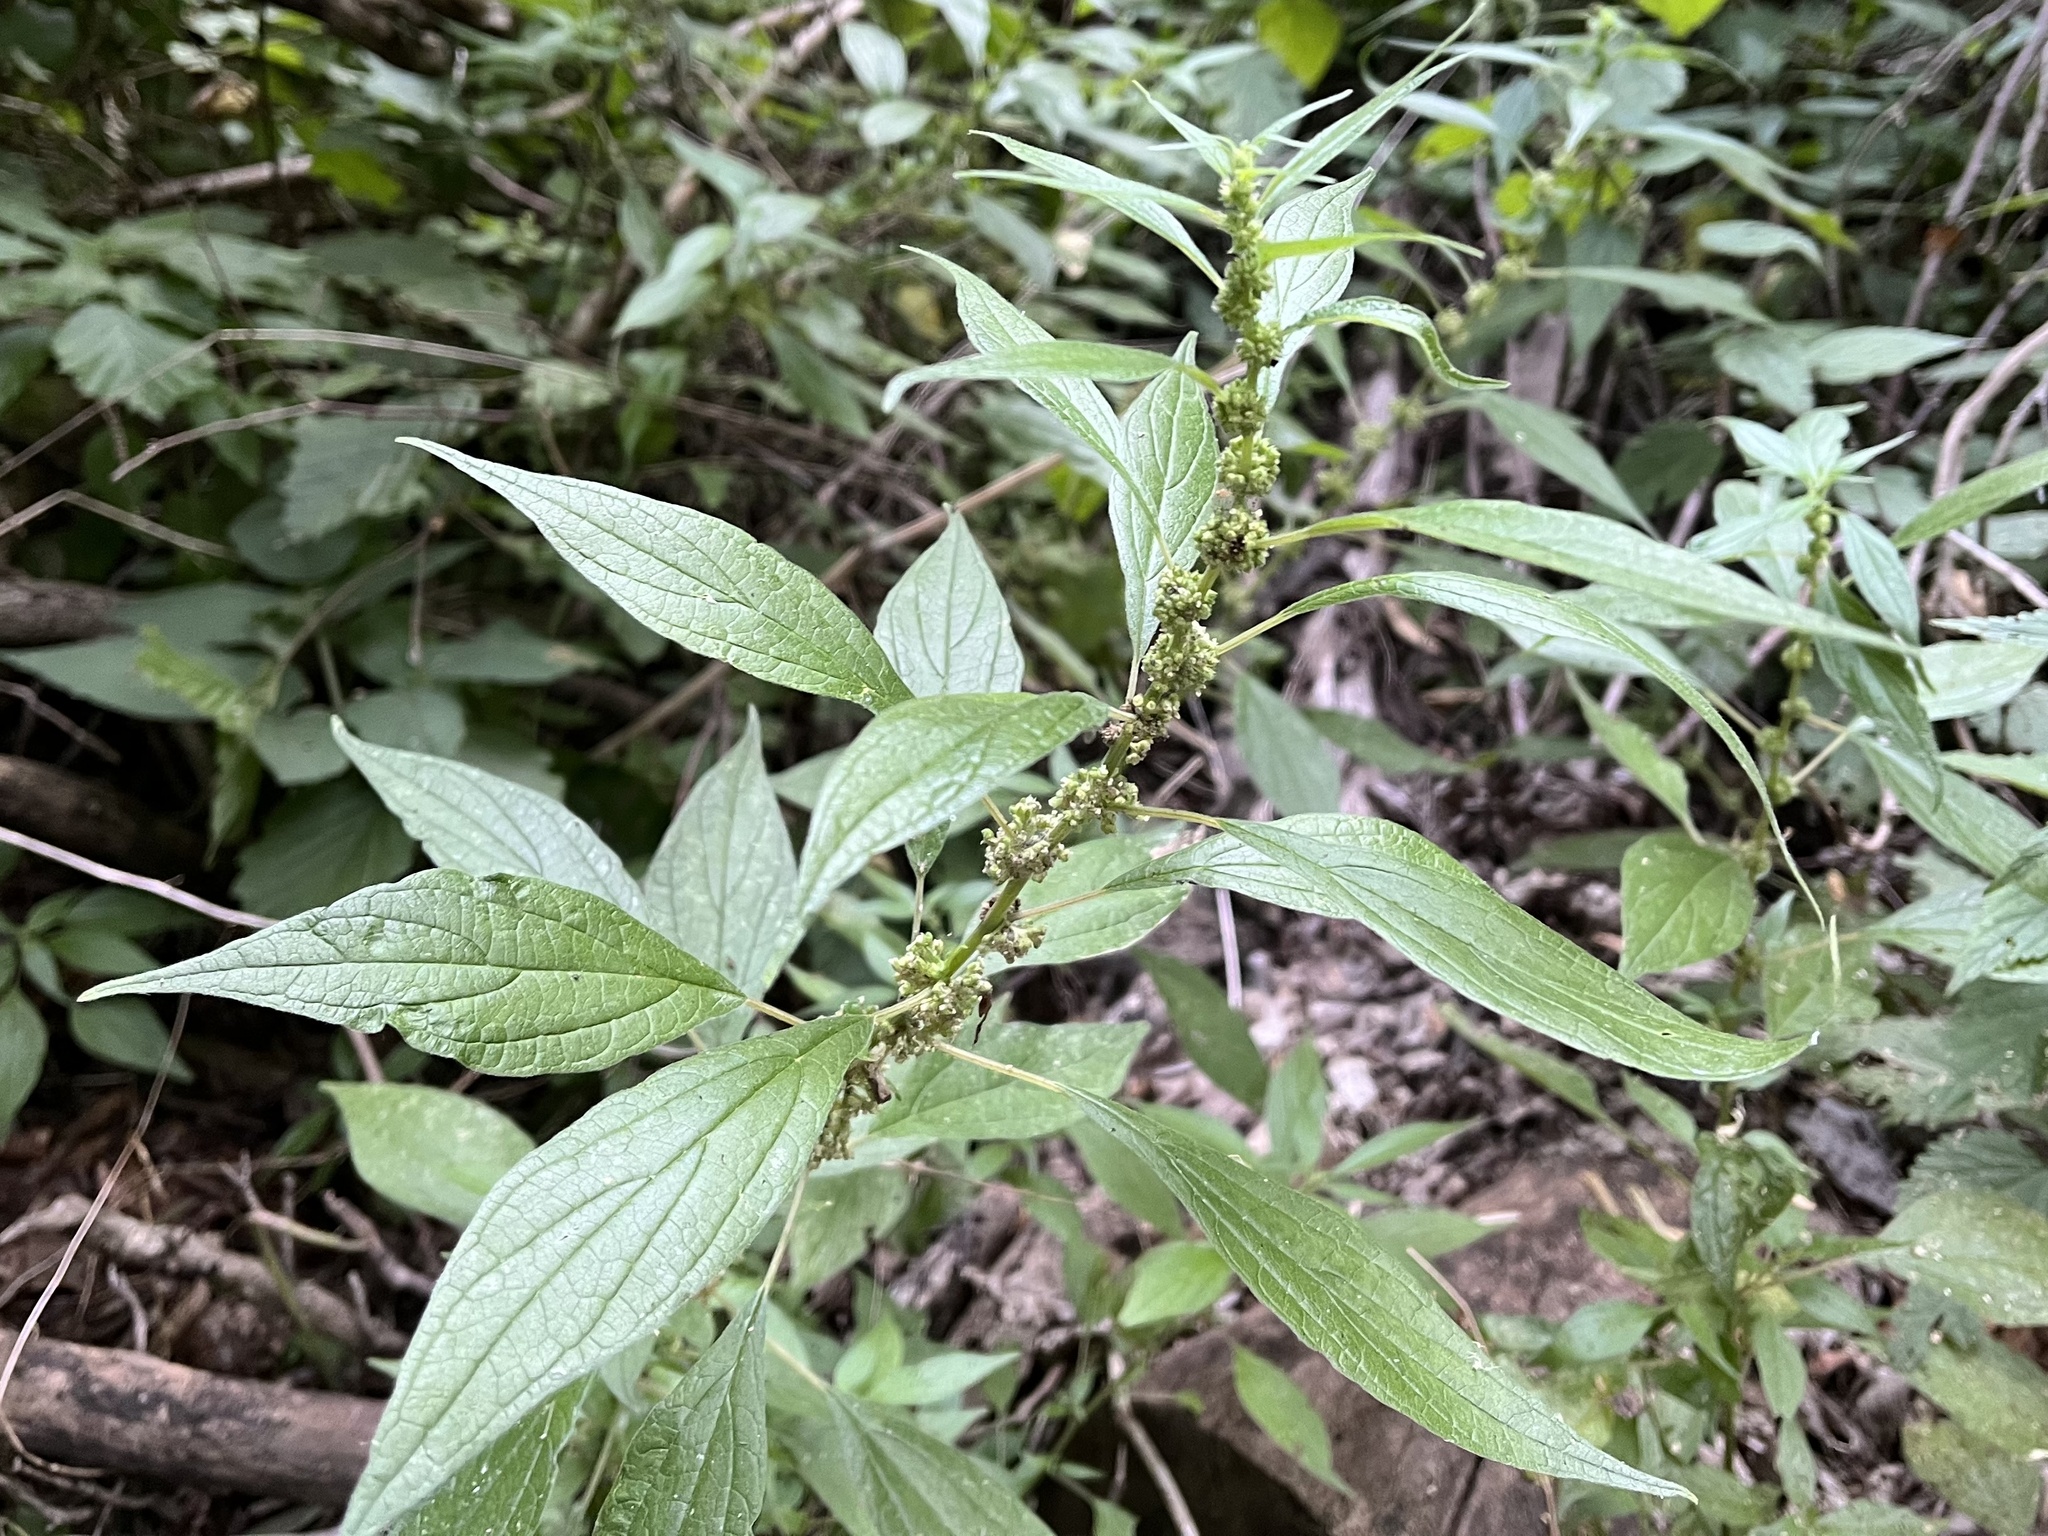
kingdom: Plantae
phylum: Tracheophyta
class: Magnoliopsida
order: Rosales
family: Urticaceae
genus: Parietaria
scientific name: Parietaria officinalis
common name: Eastern pellitory-of-the-wall
